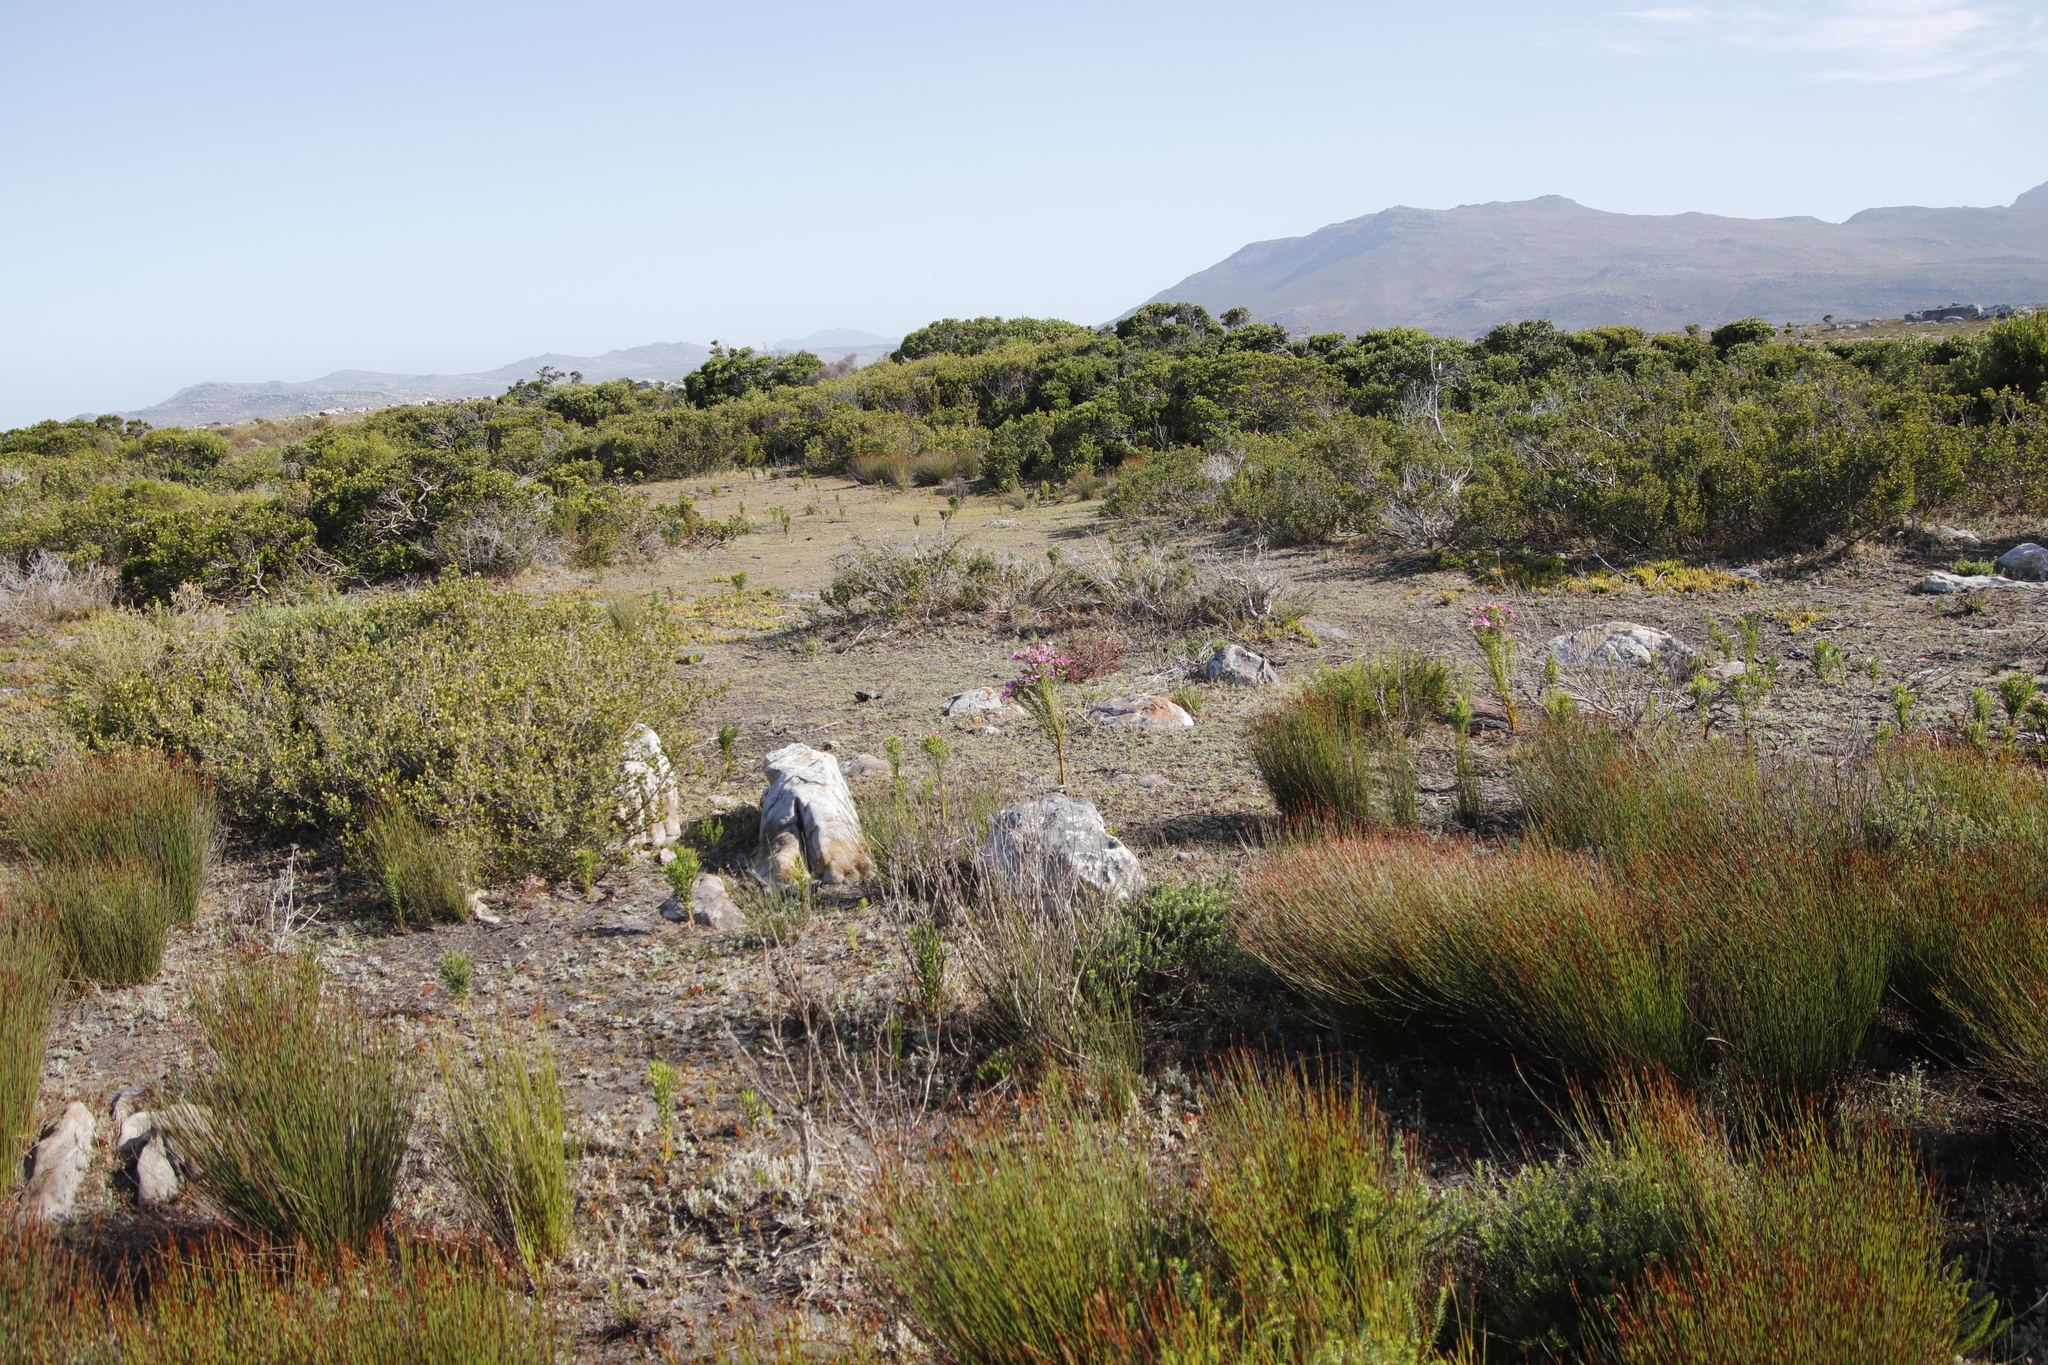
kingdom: Plantae
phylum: Tracheophyta
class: Magnoliopsida
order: Gentianales
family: Gentianaceae
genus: Orphium
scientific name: Orphium frutescens
